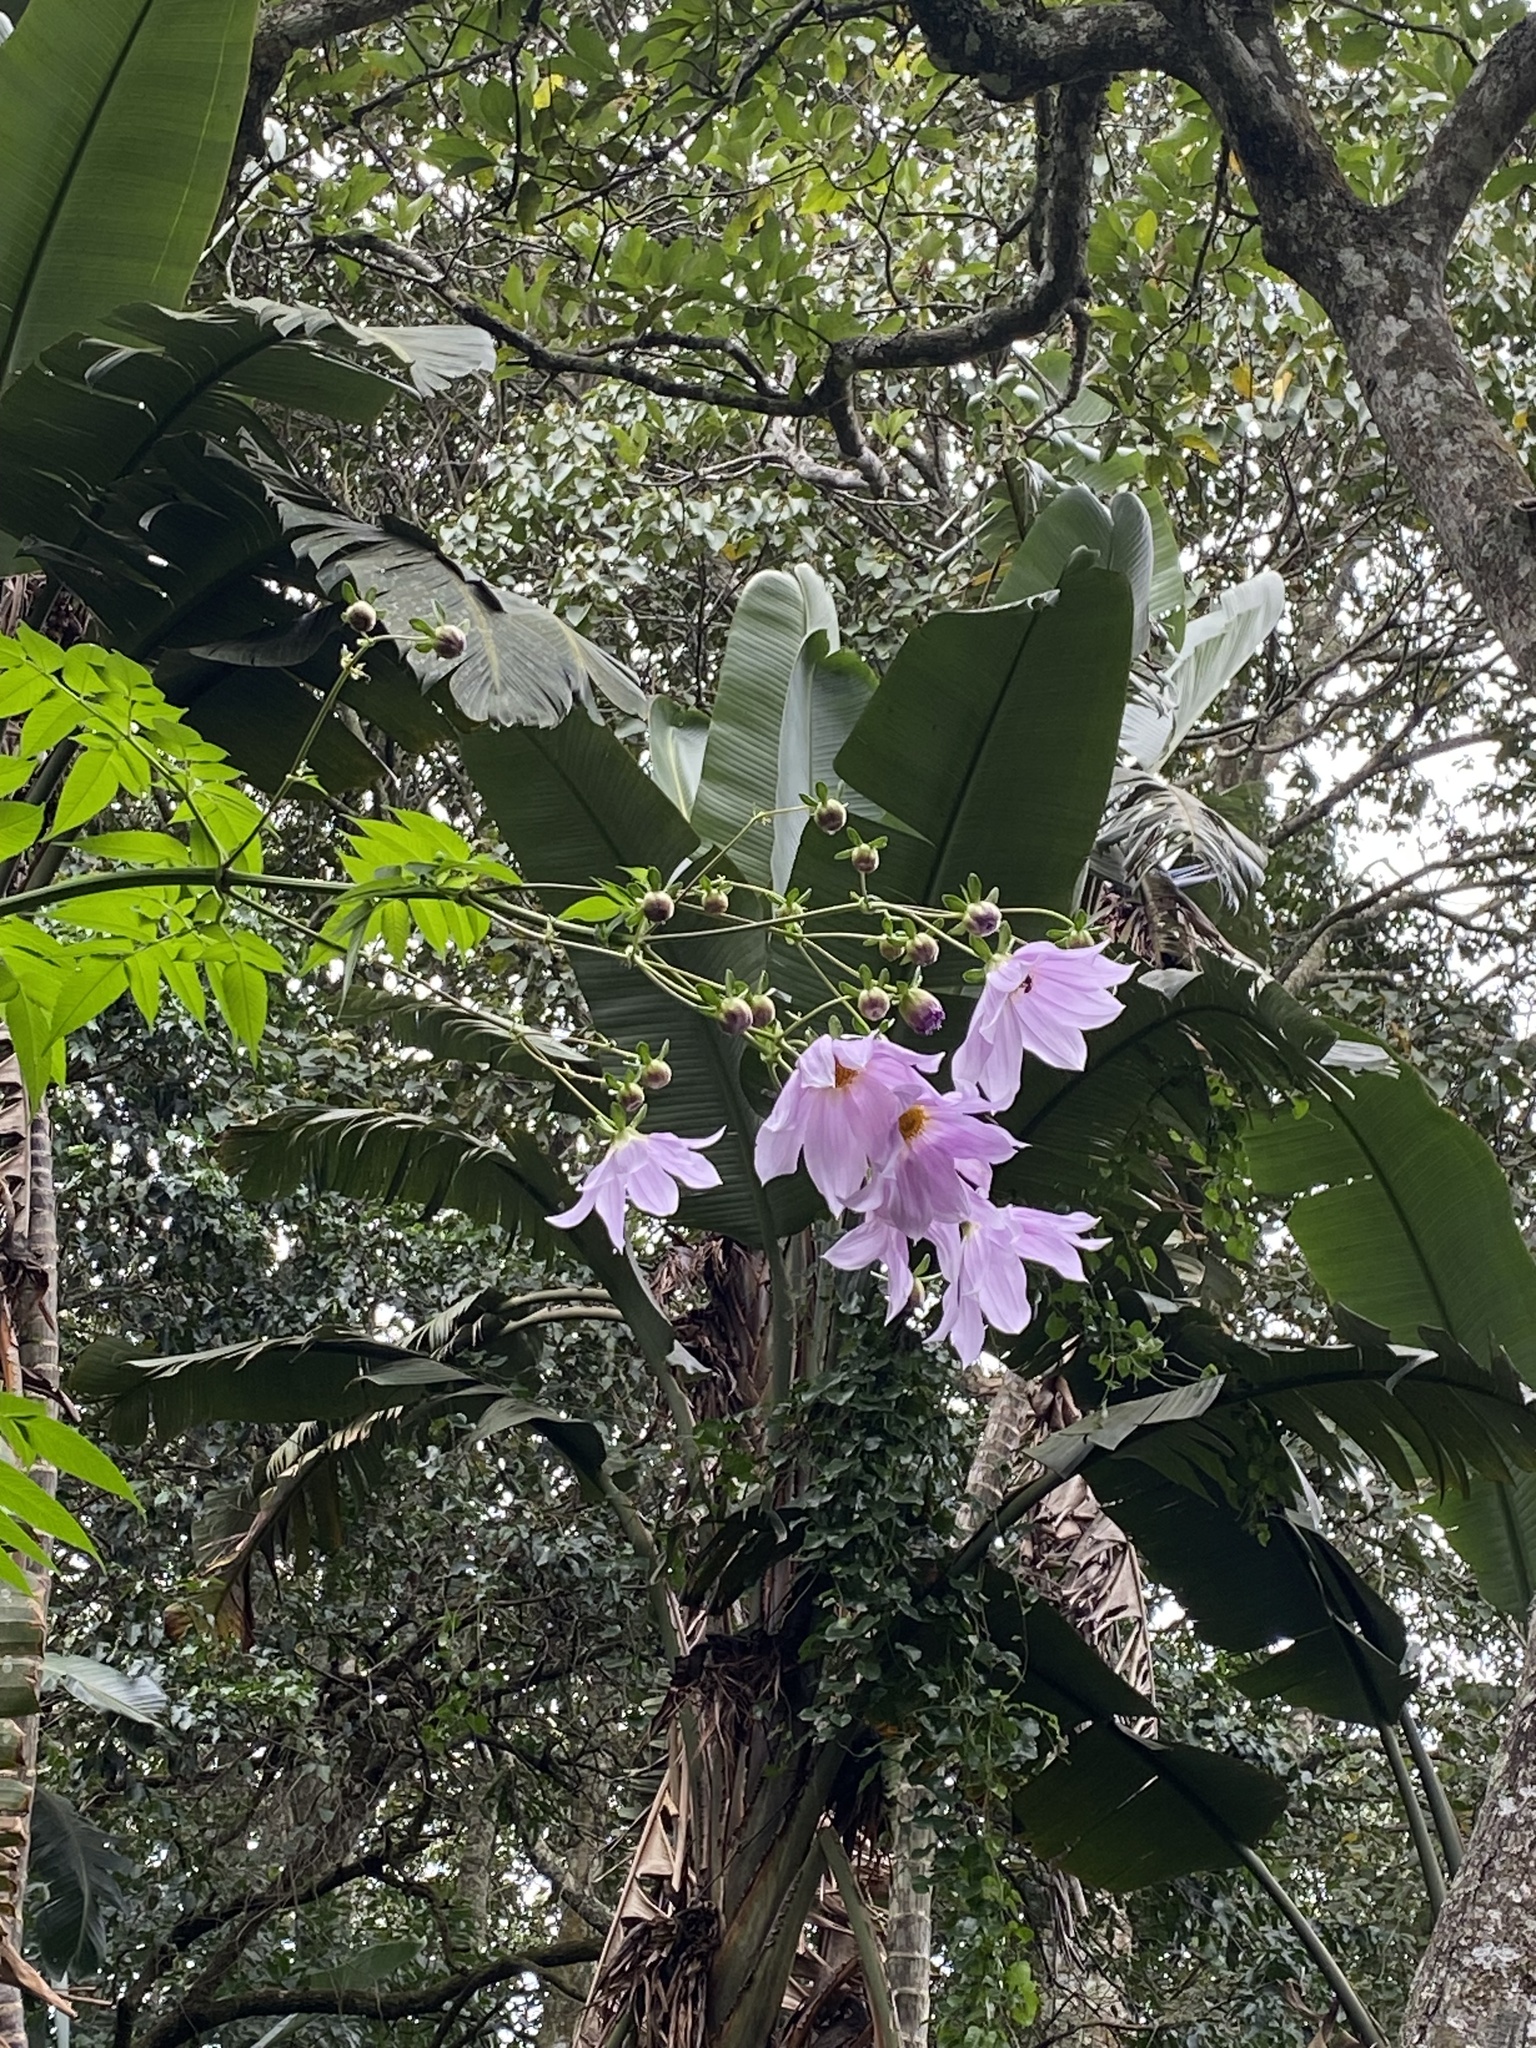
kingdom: Plantae
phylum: Tracheophyta
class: Magnoliopsida
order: Asterales
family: Asteraceae
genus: Dahlia
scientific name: Dahlia imperialis
